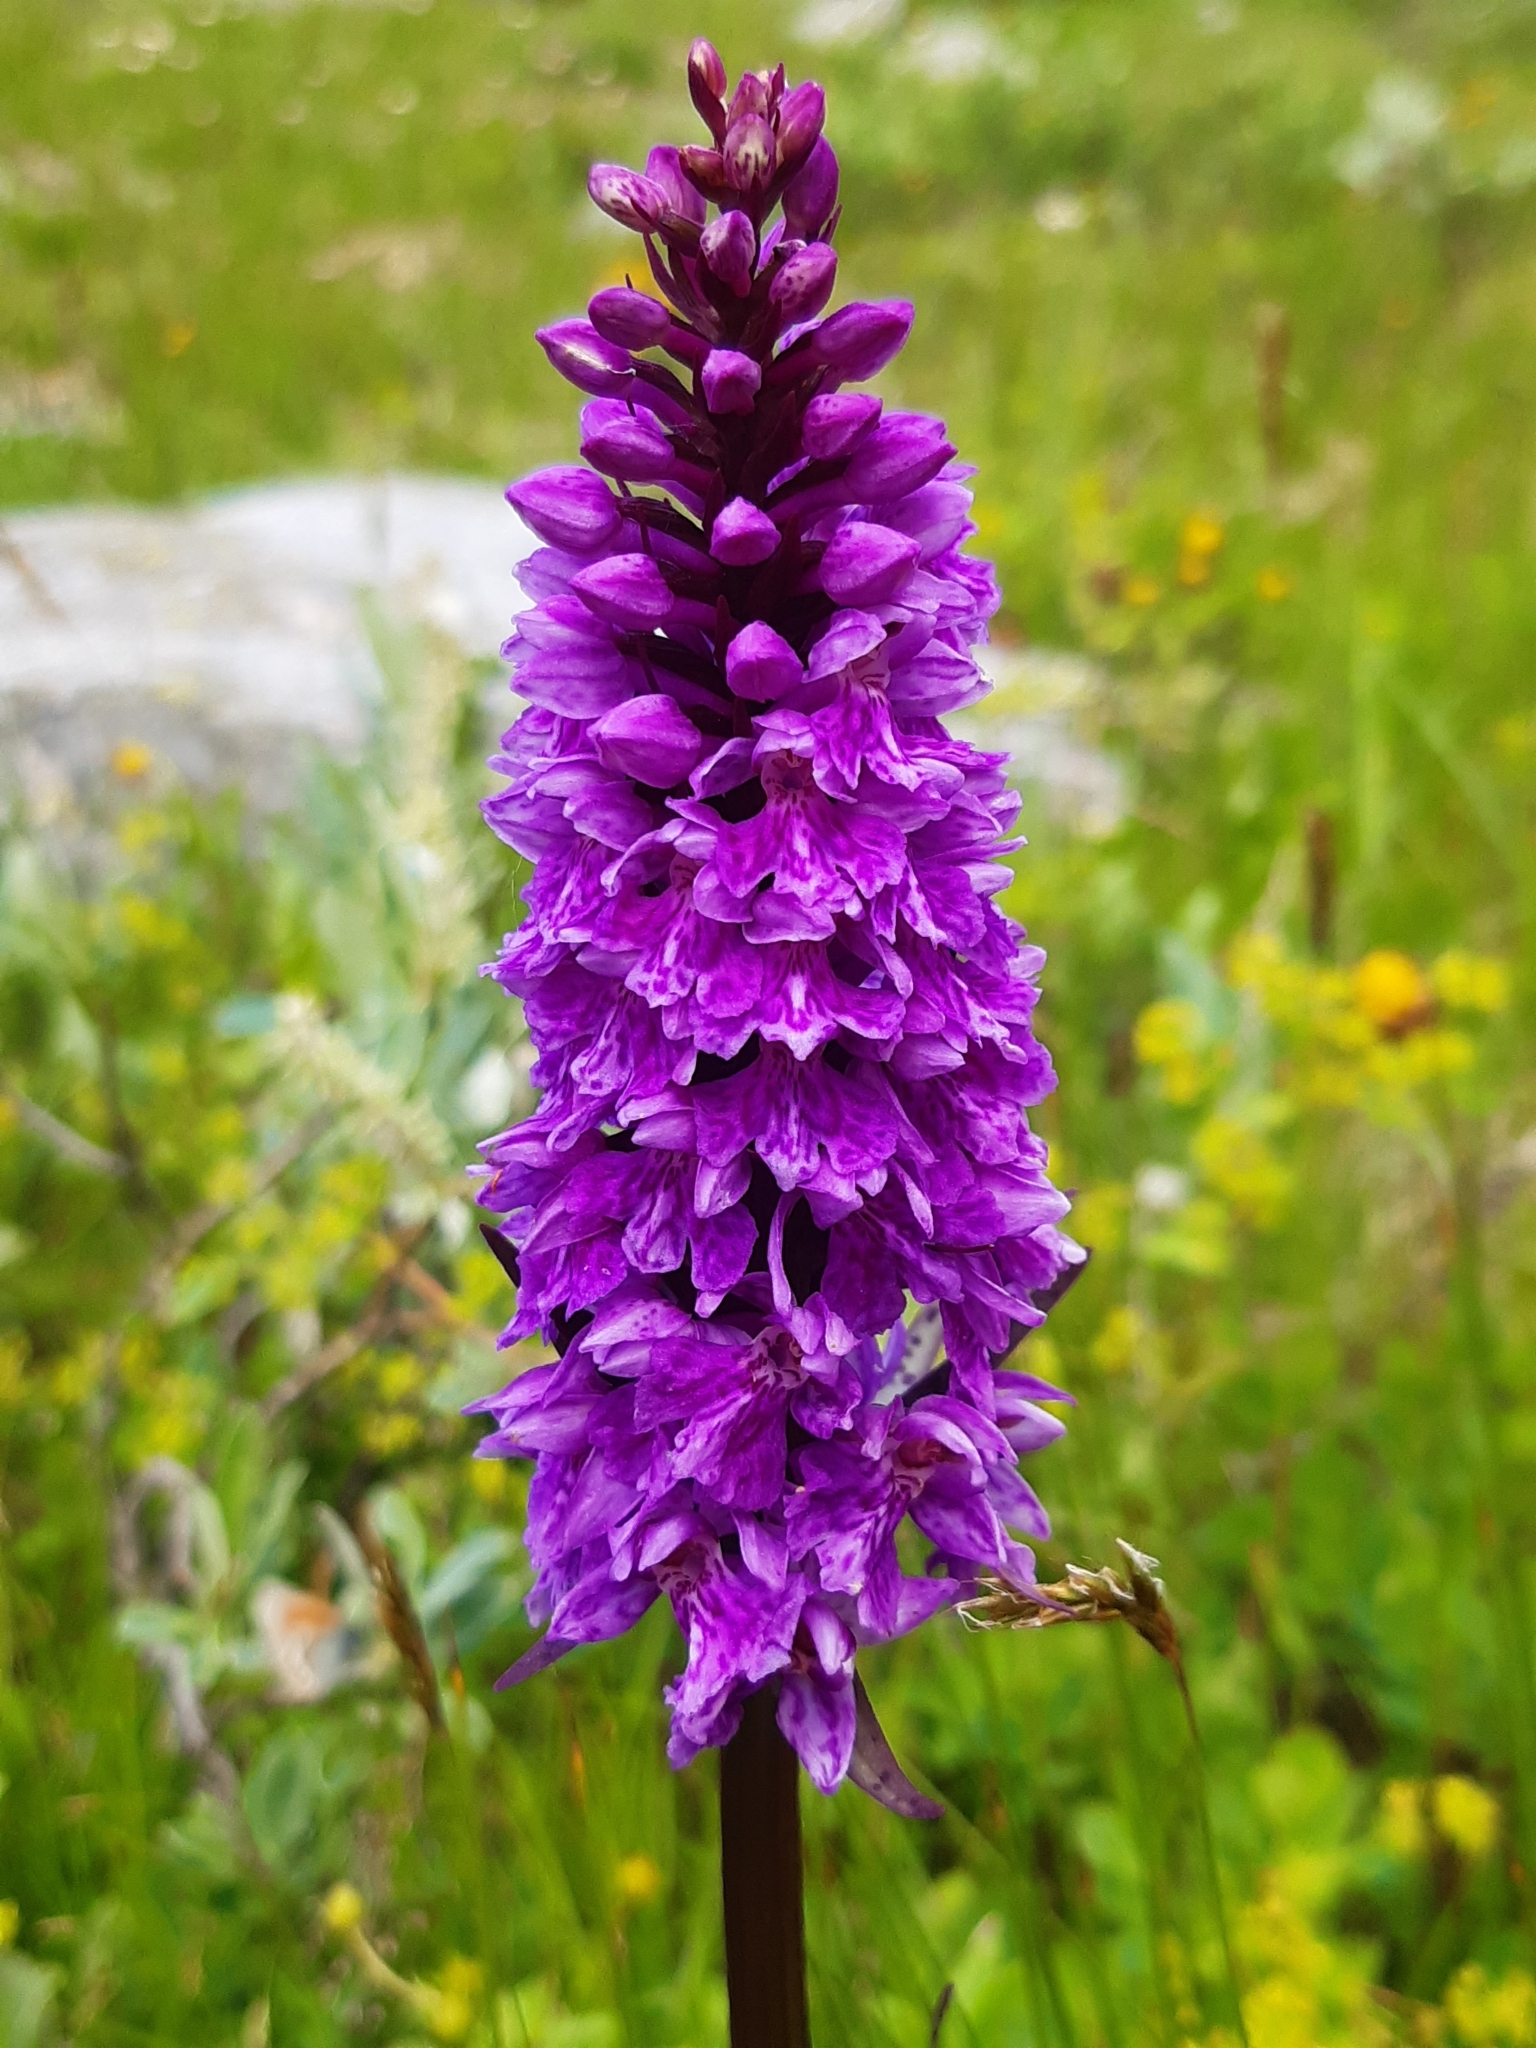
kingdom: Plantae
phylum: Tracheophyta
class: Liliopsida
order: Asparagales
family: Orchidaceae
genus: Dactylorhiza
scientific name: Dactylorhiza maculata
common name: Heath spotted-orchid
